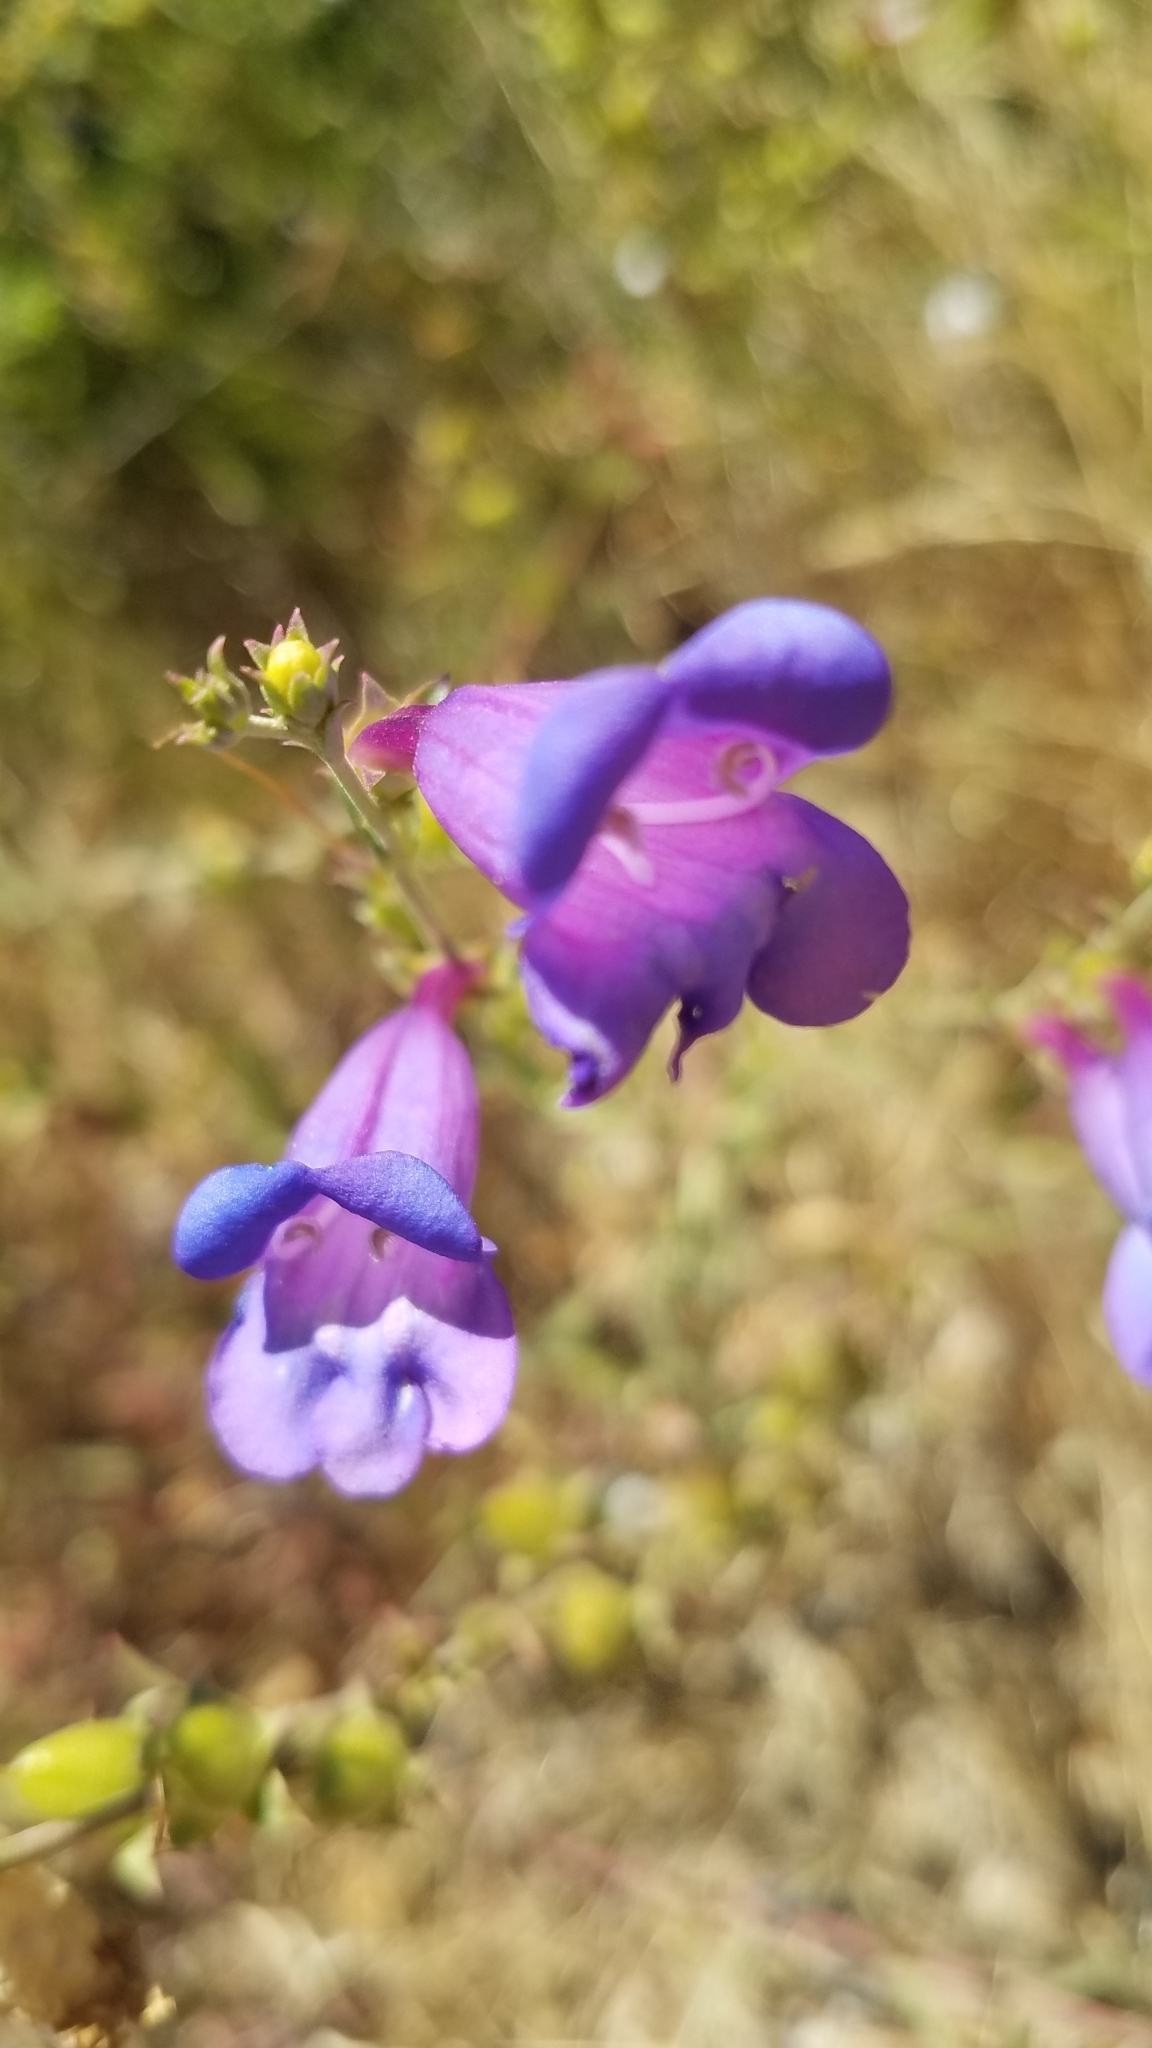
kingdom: Plantae
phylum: Tracheophyta
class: Magnoliopsida
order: Lamiales
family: Plantaginaceae
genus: Penstemon
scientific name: Penstemon heterophyllus
